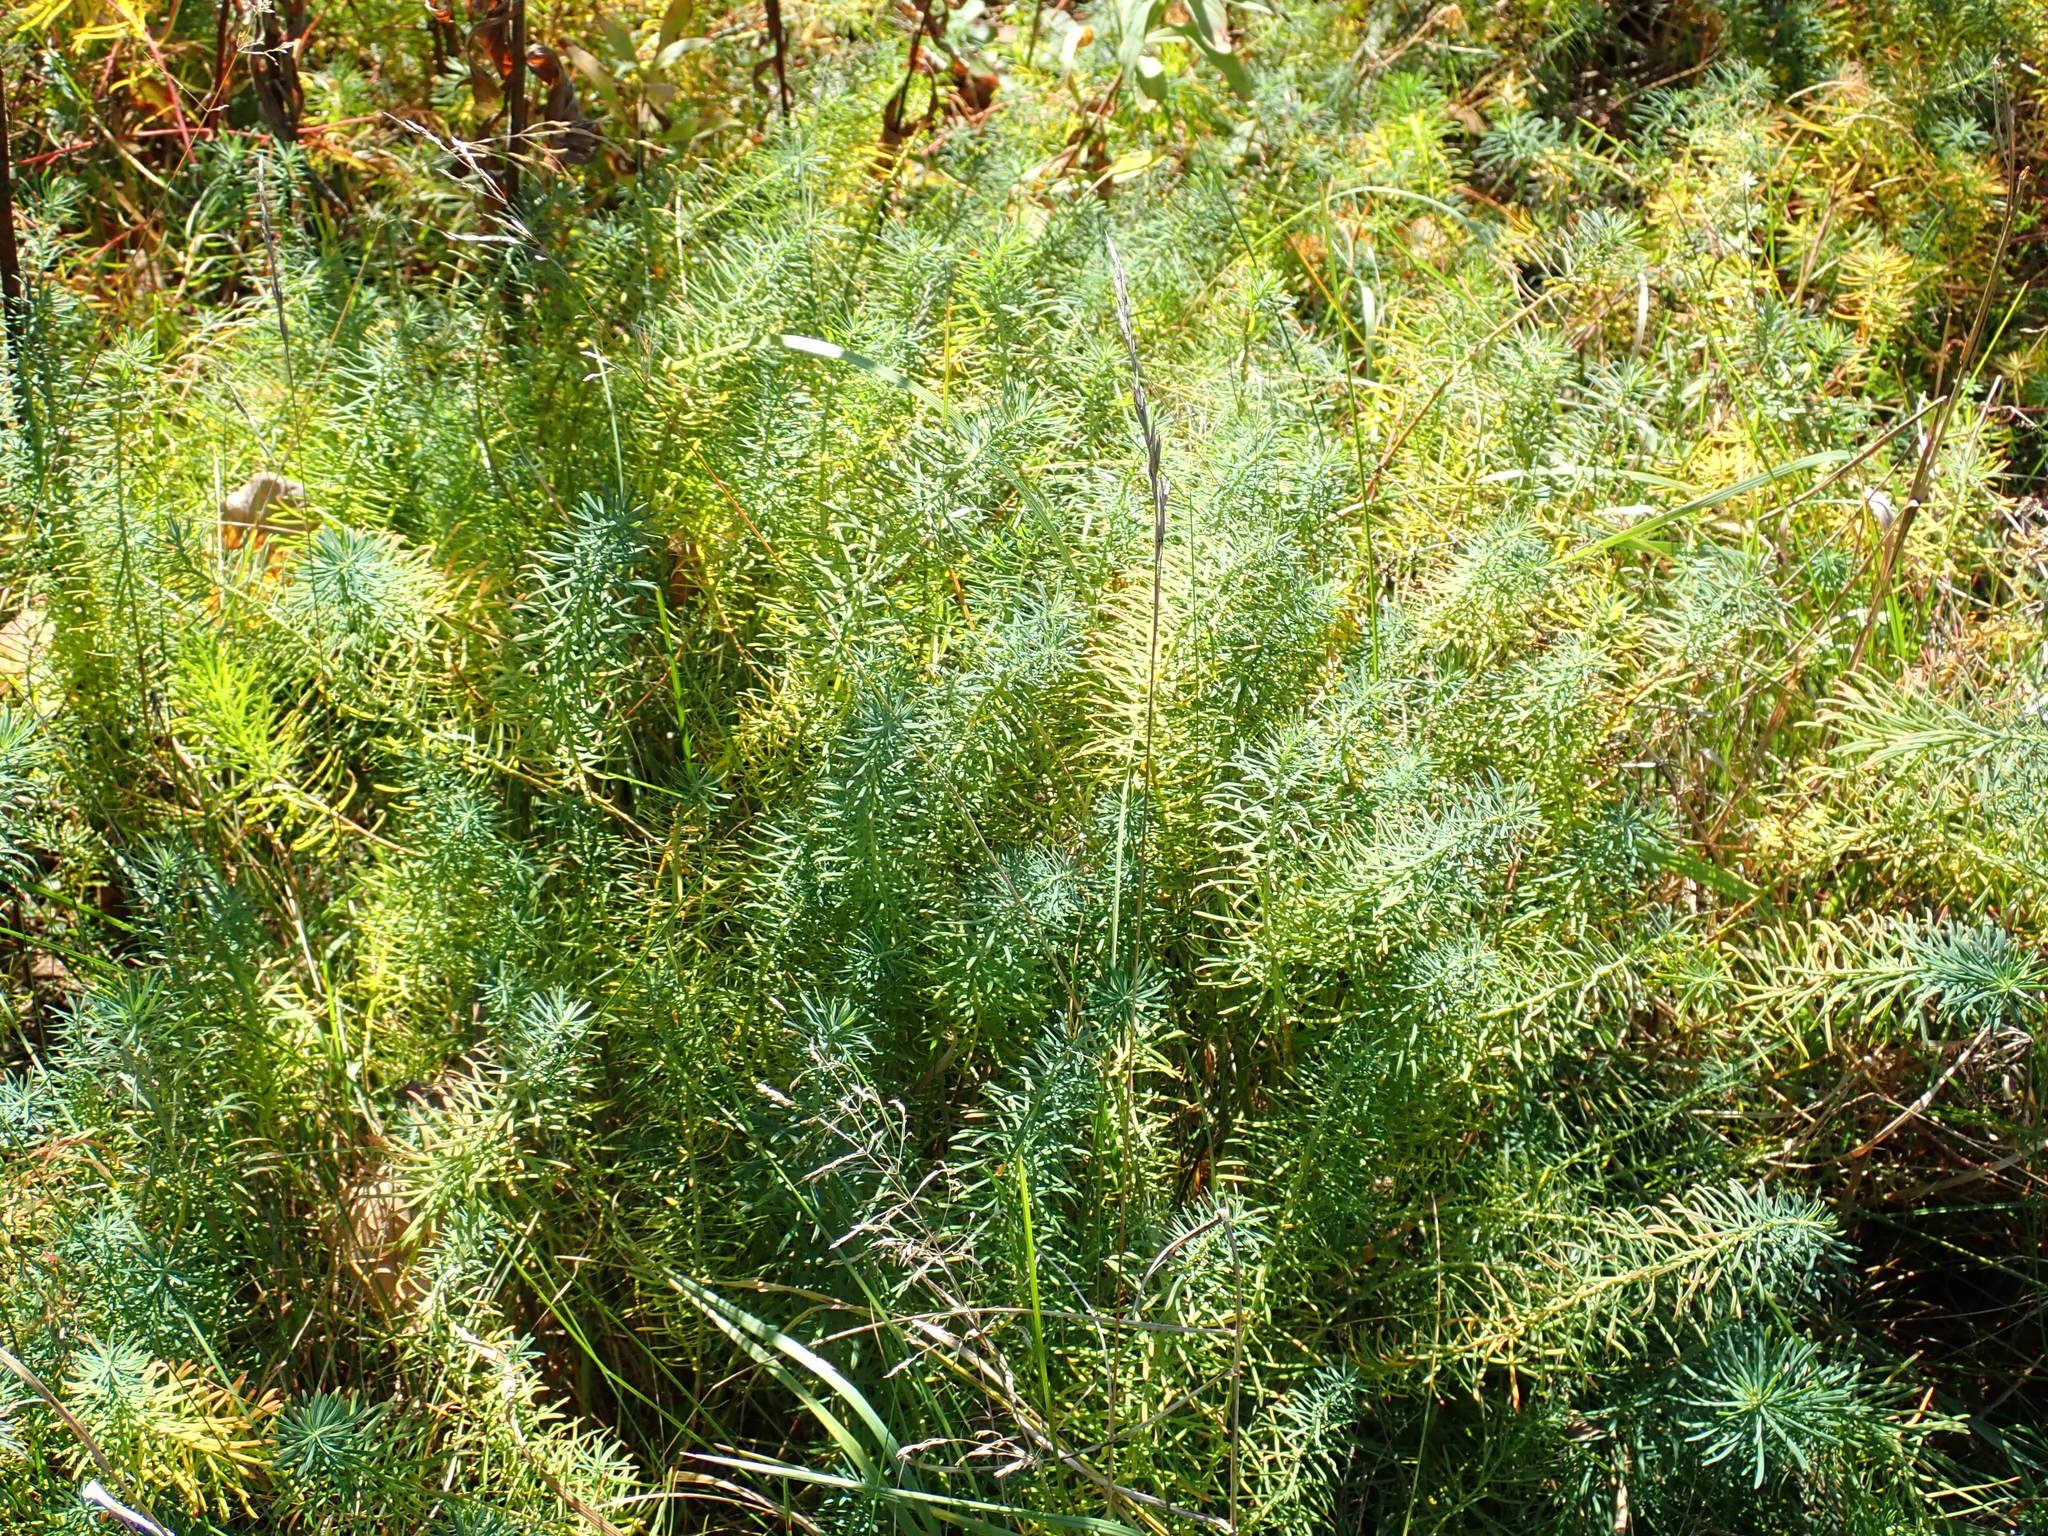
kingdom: Plantae
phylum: Tracheophyta
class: Magnoliopsida
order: Malpighiales
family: Euphorbiaceae
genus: Euphorbia
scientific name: Euphorbia cyparissias
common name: Cypress spurge
